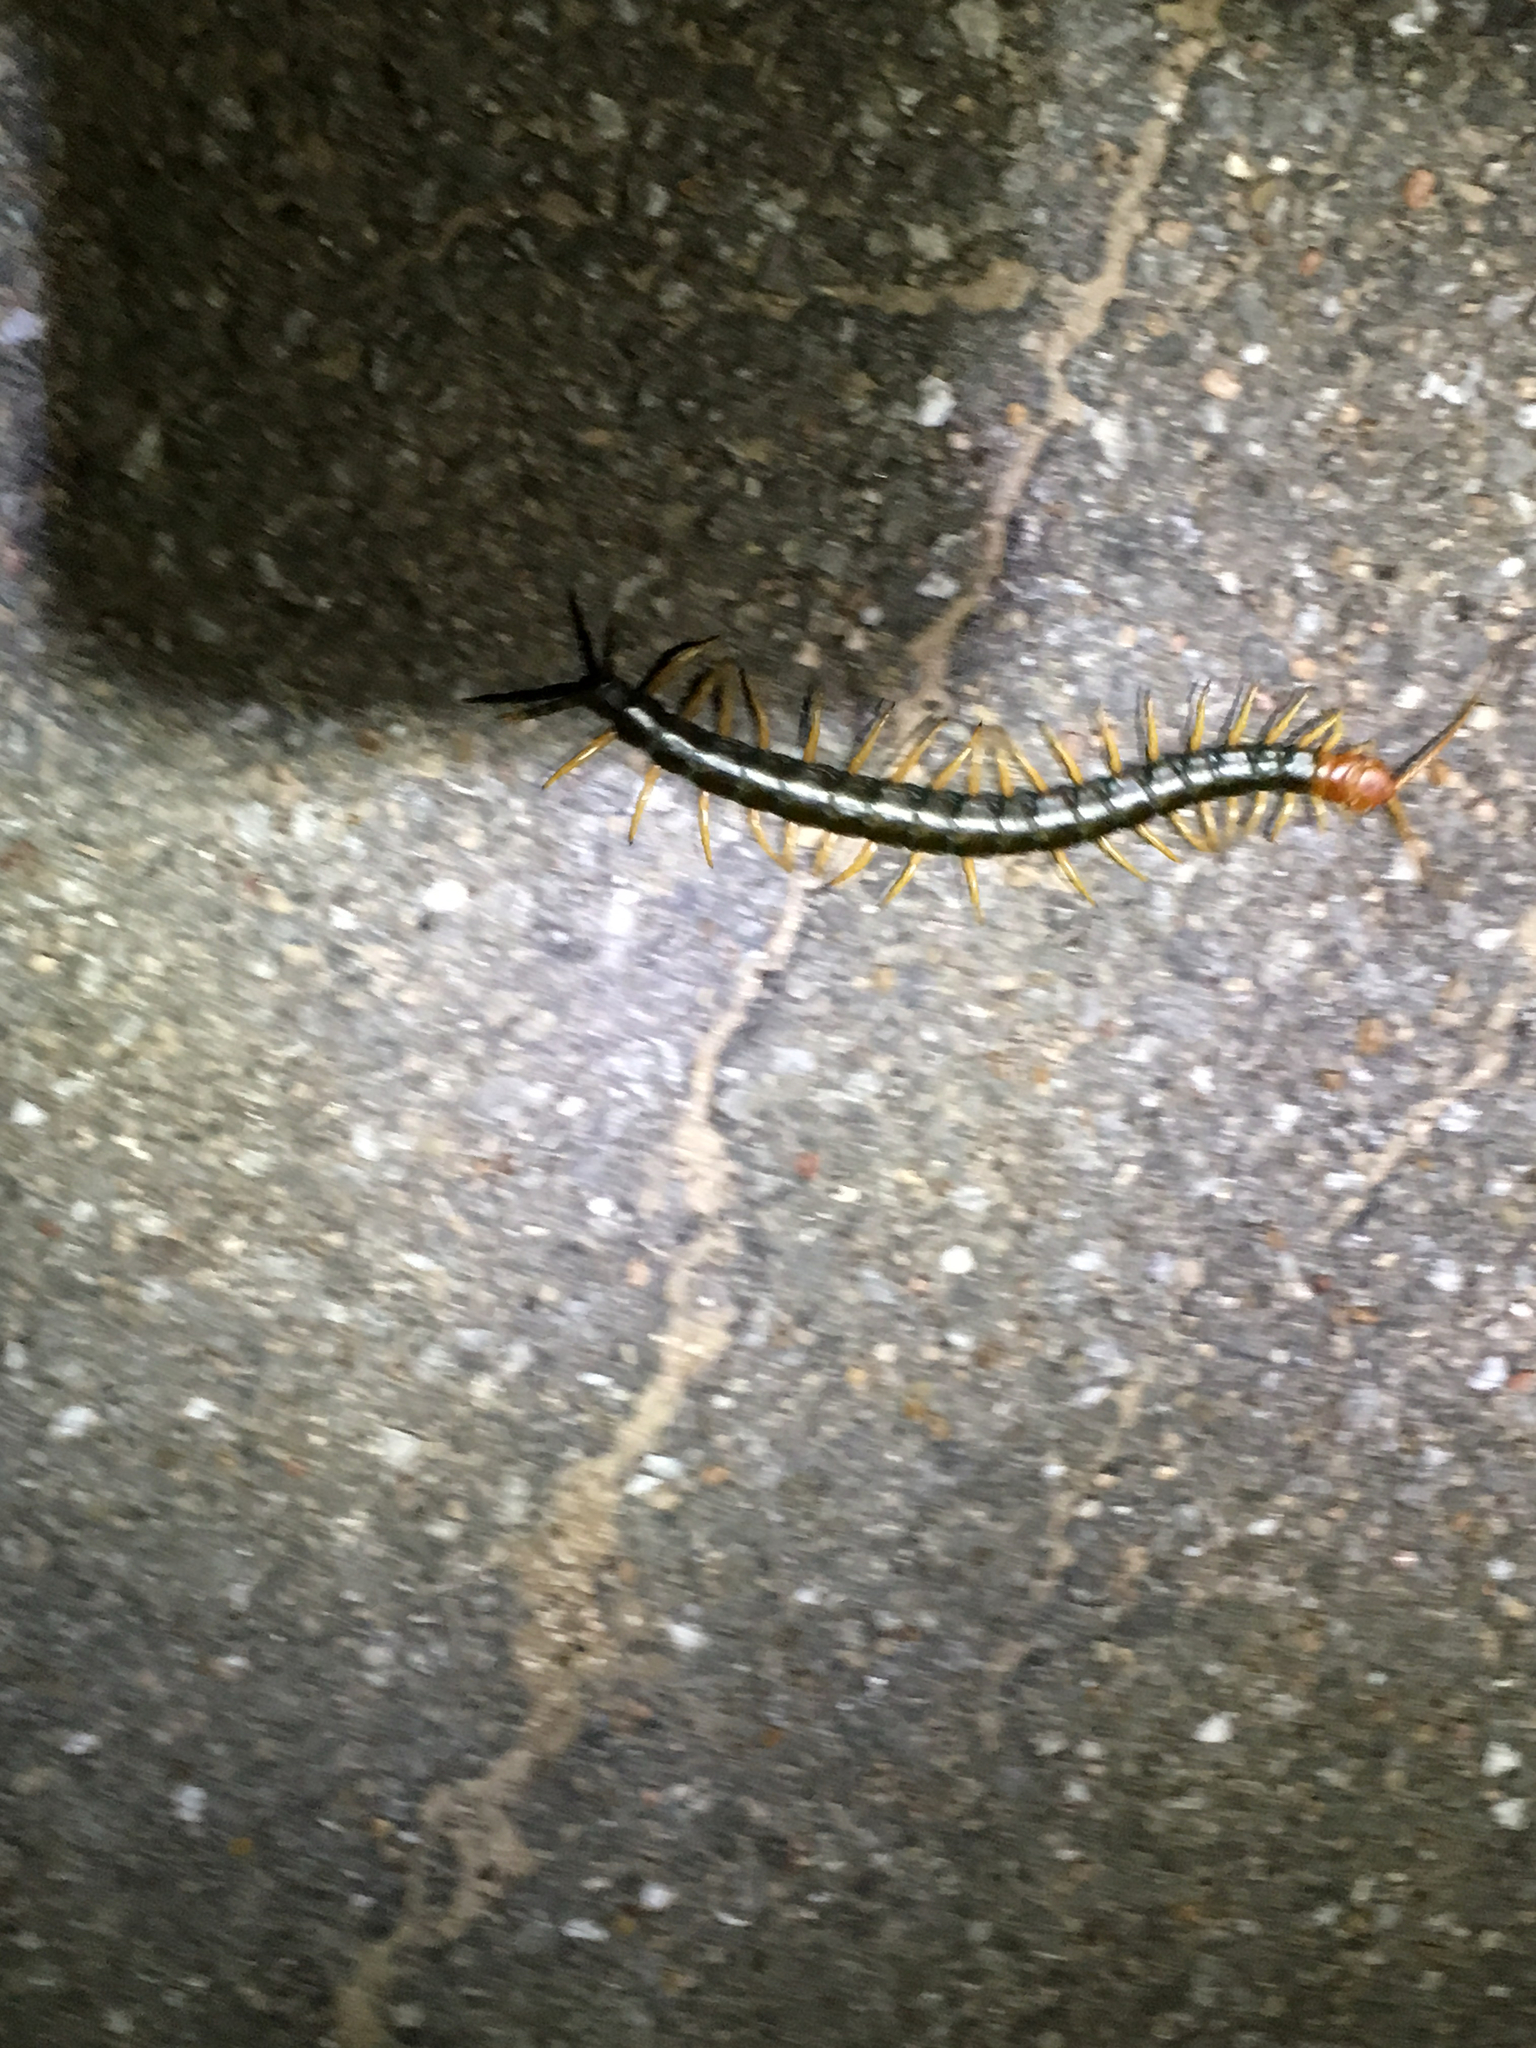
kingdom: Animalia
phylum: Arthropoda
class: Chilopoda
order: Scolopendromorpha
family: Scolopendridae
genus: Scolopendra
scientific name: Scolopendra heros
